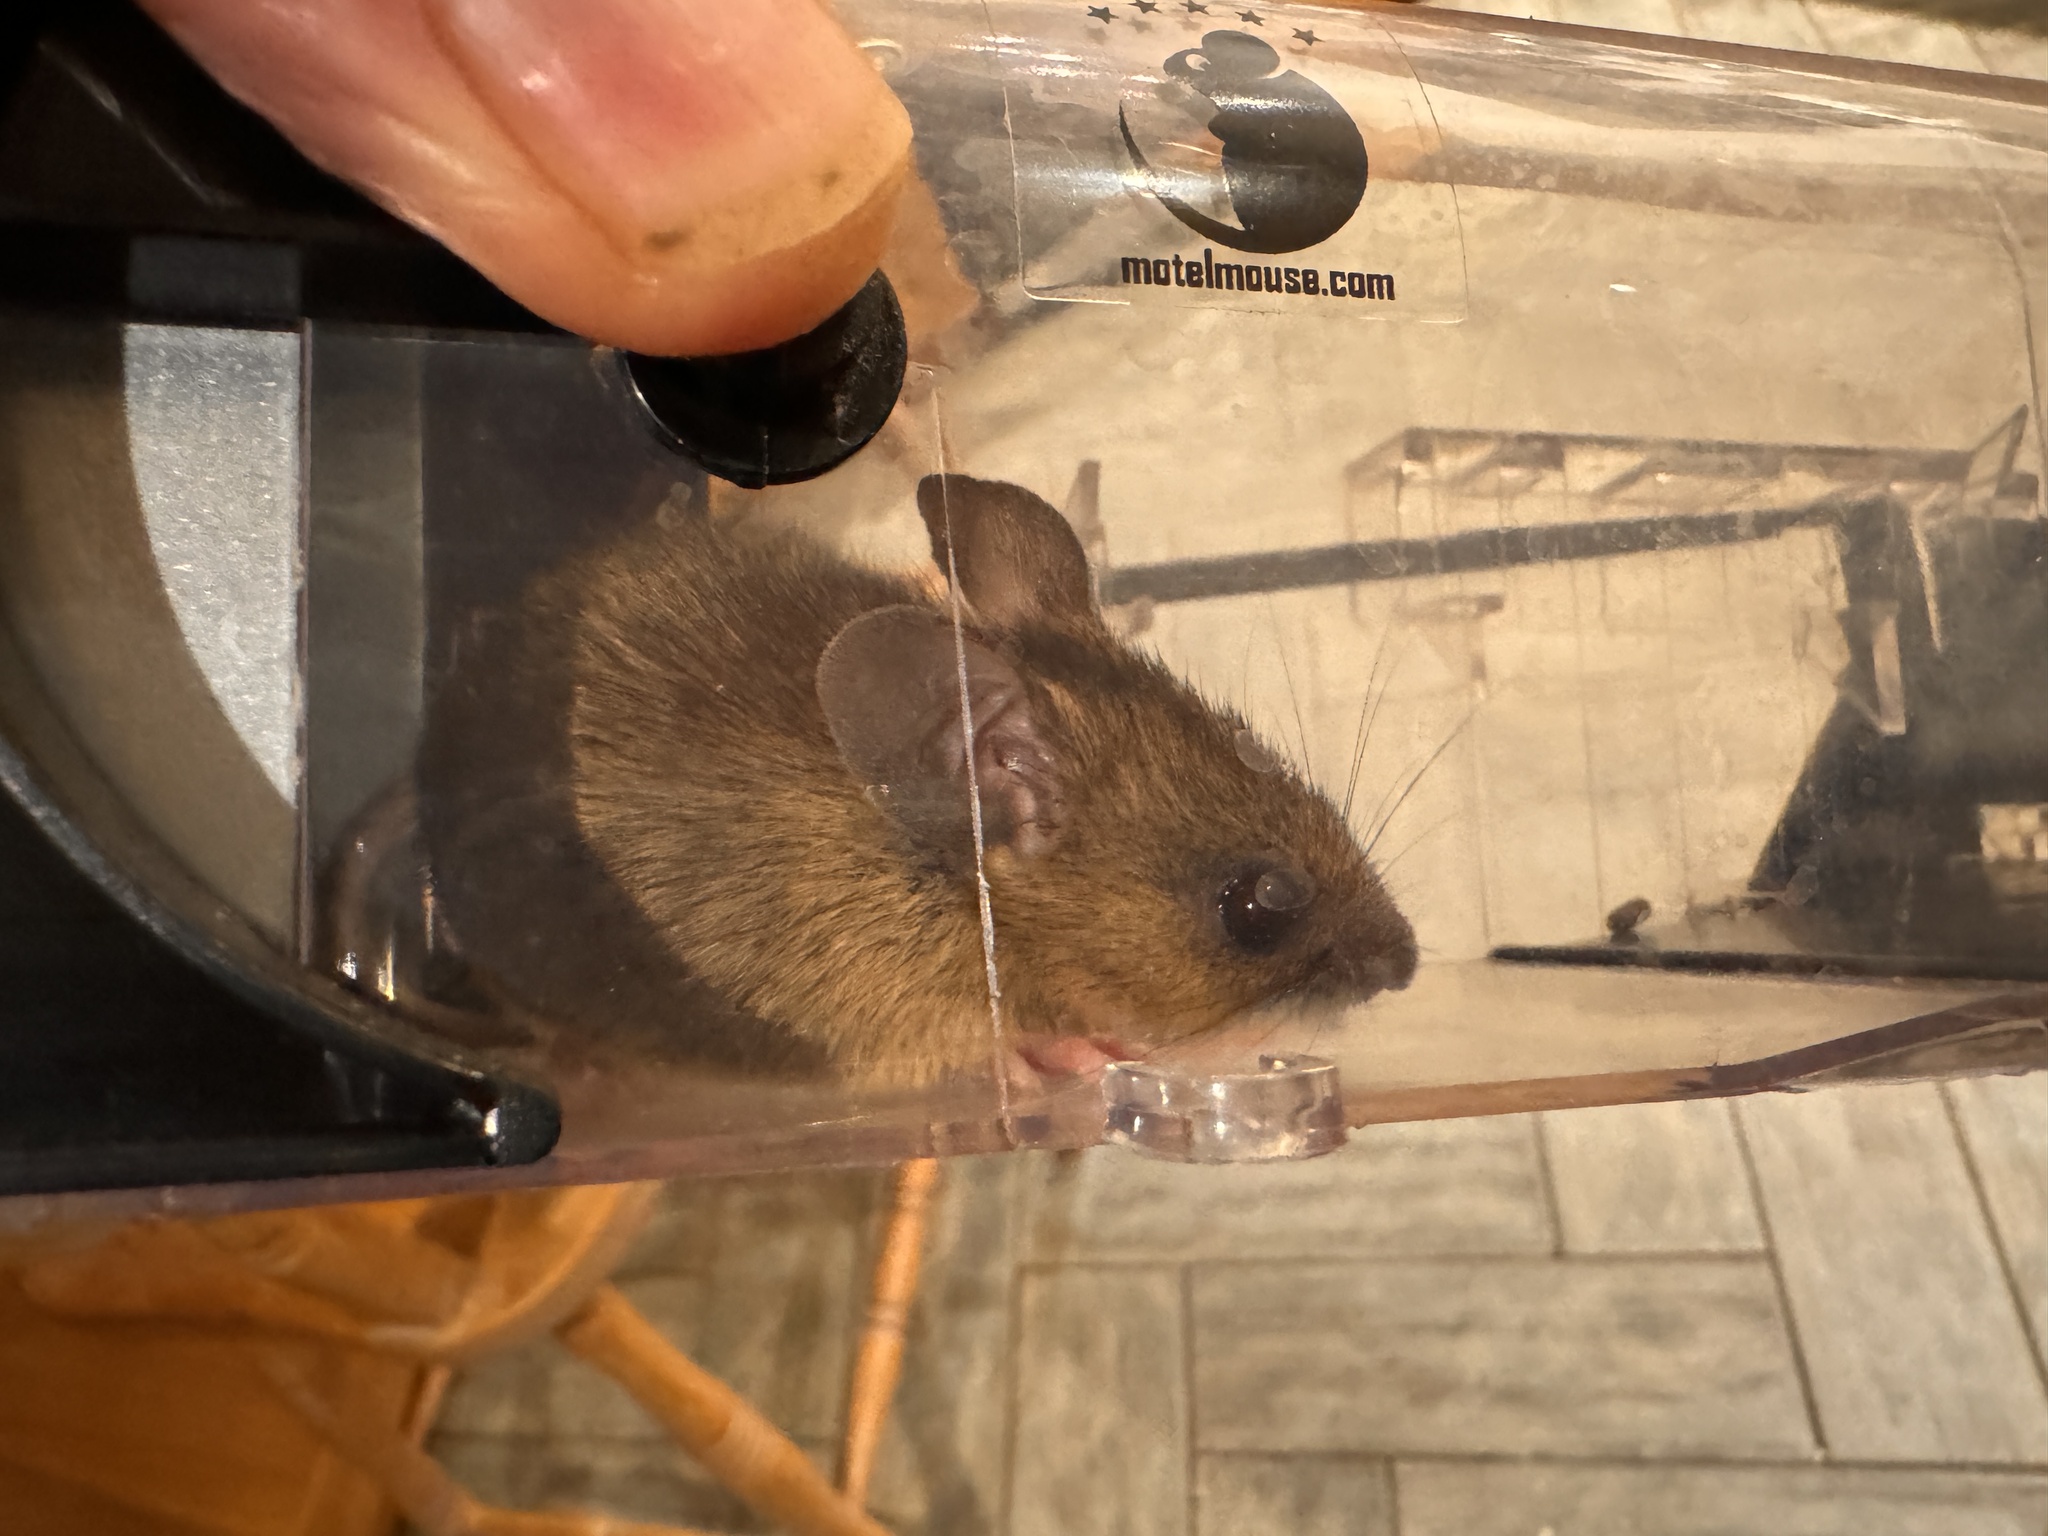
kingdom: Animalia
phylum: Chordata
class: Mammalia
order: Rodentia
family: Muridae
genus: Apodemus
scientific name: Apodemus sylvaticus
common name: Wood mouse
